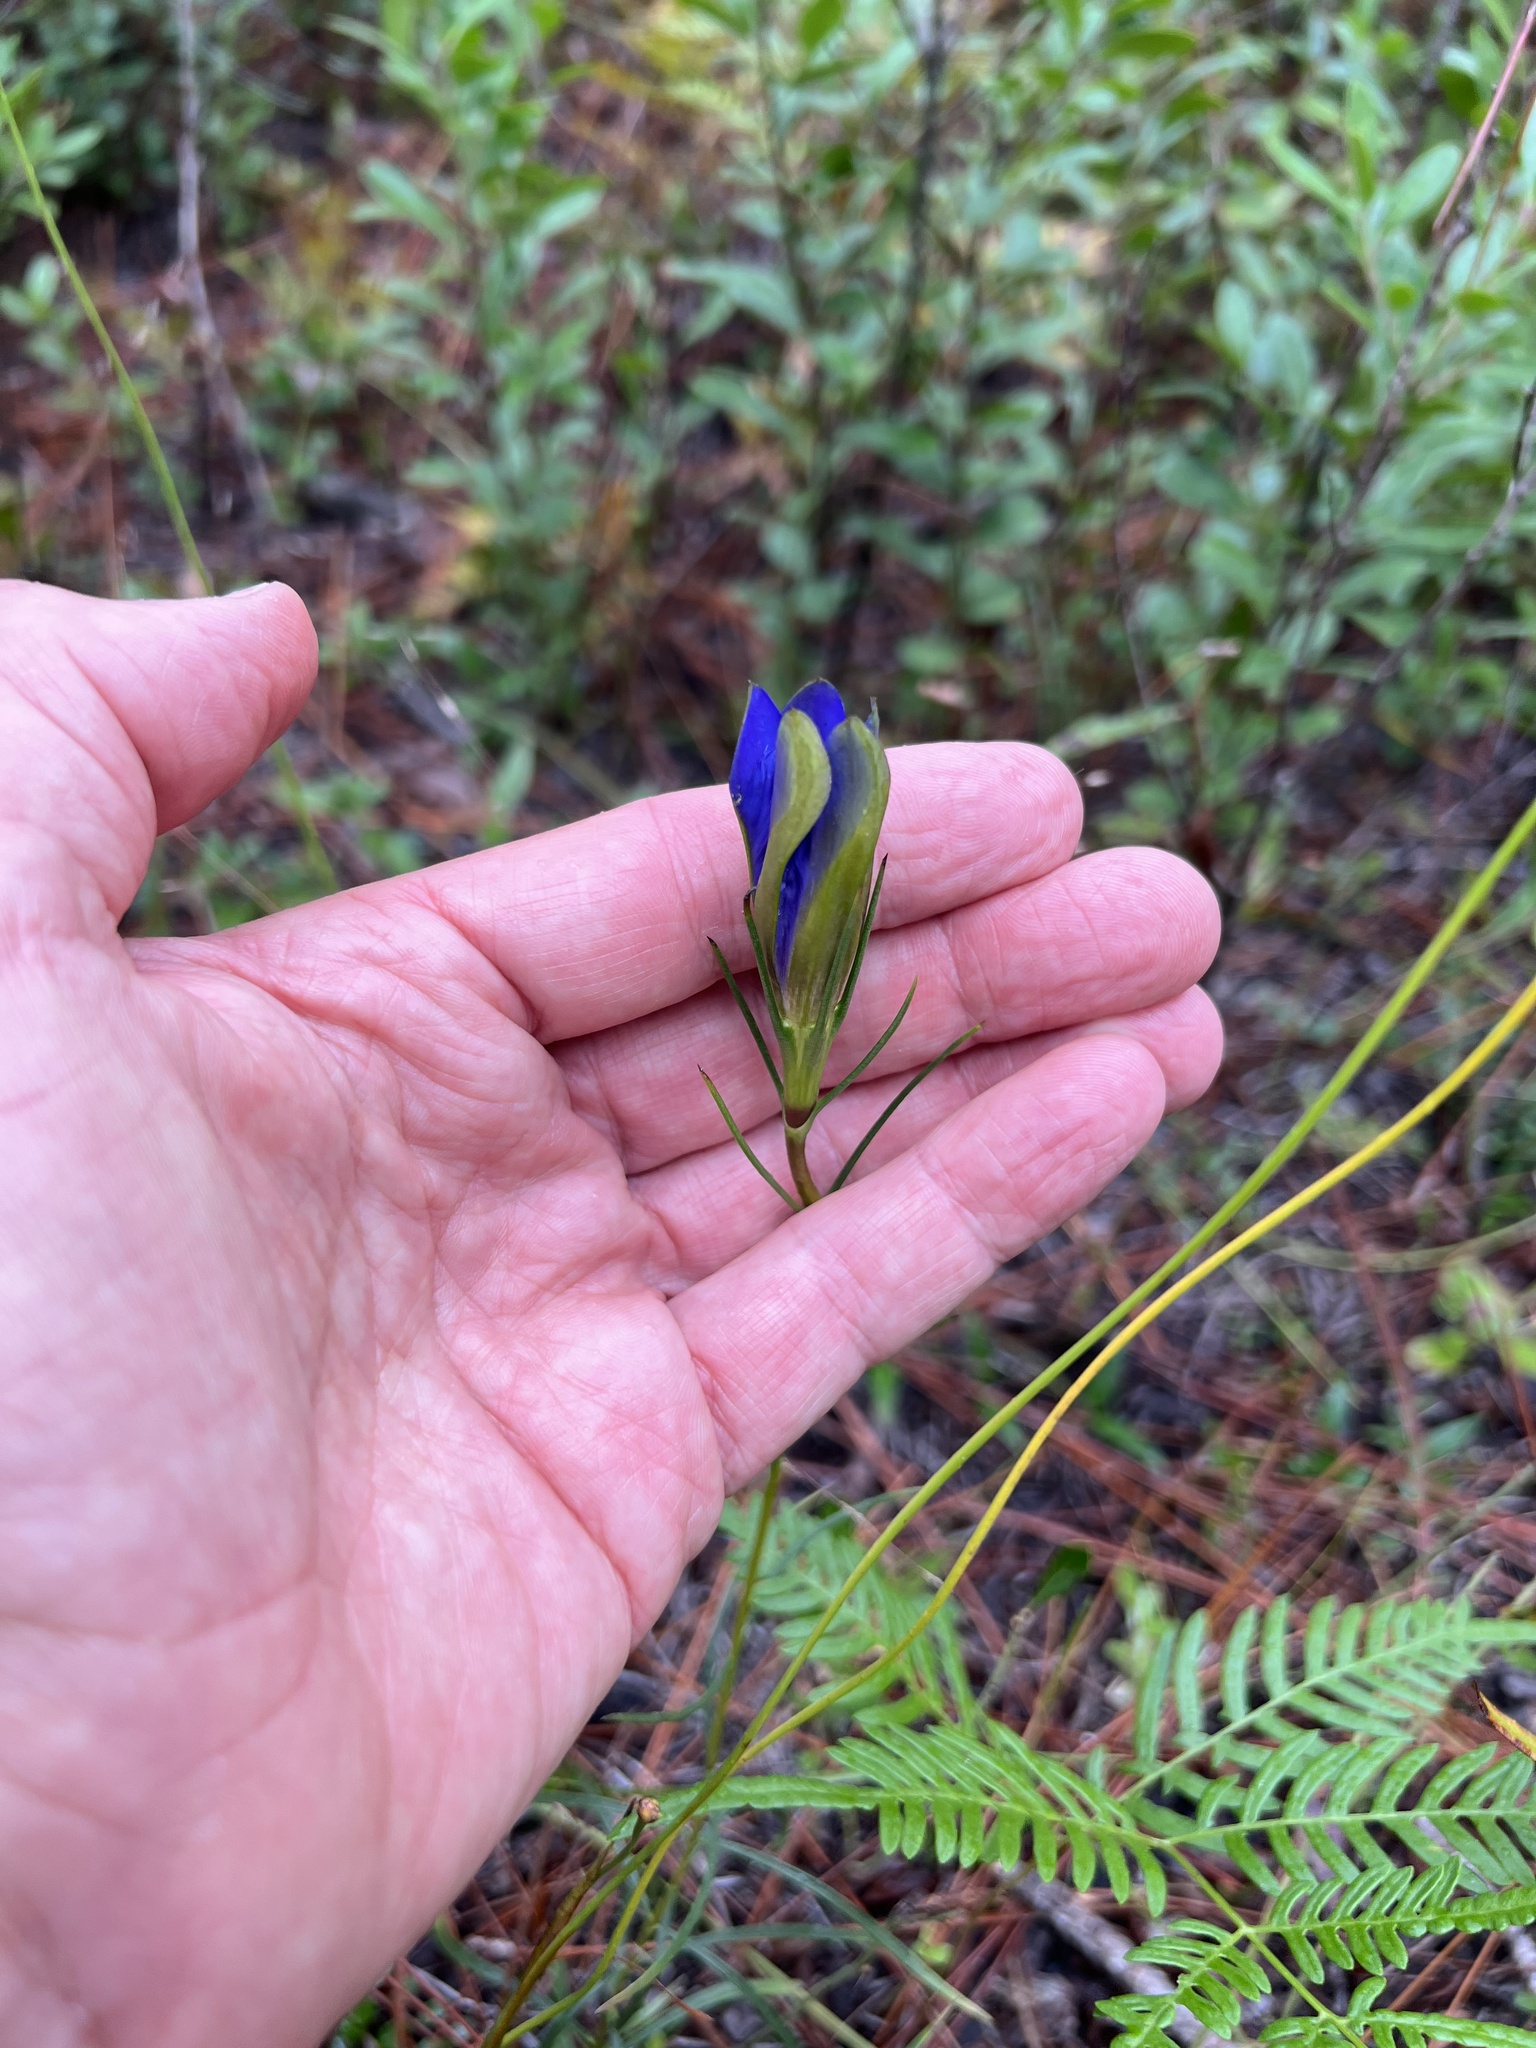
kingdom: Plantae
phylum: Tracheophyta
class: Magnoliopsida
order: Gentianales
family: Gentianaceae
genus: Gentiana
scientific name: Gentiana autumnalis
